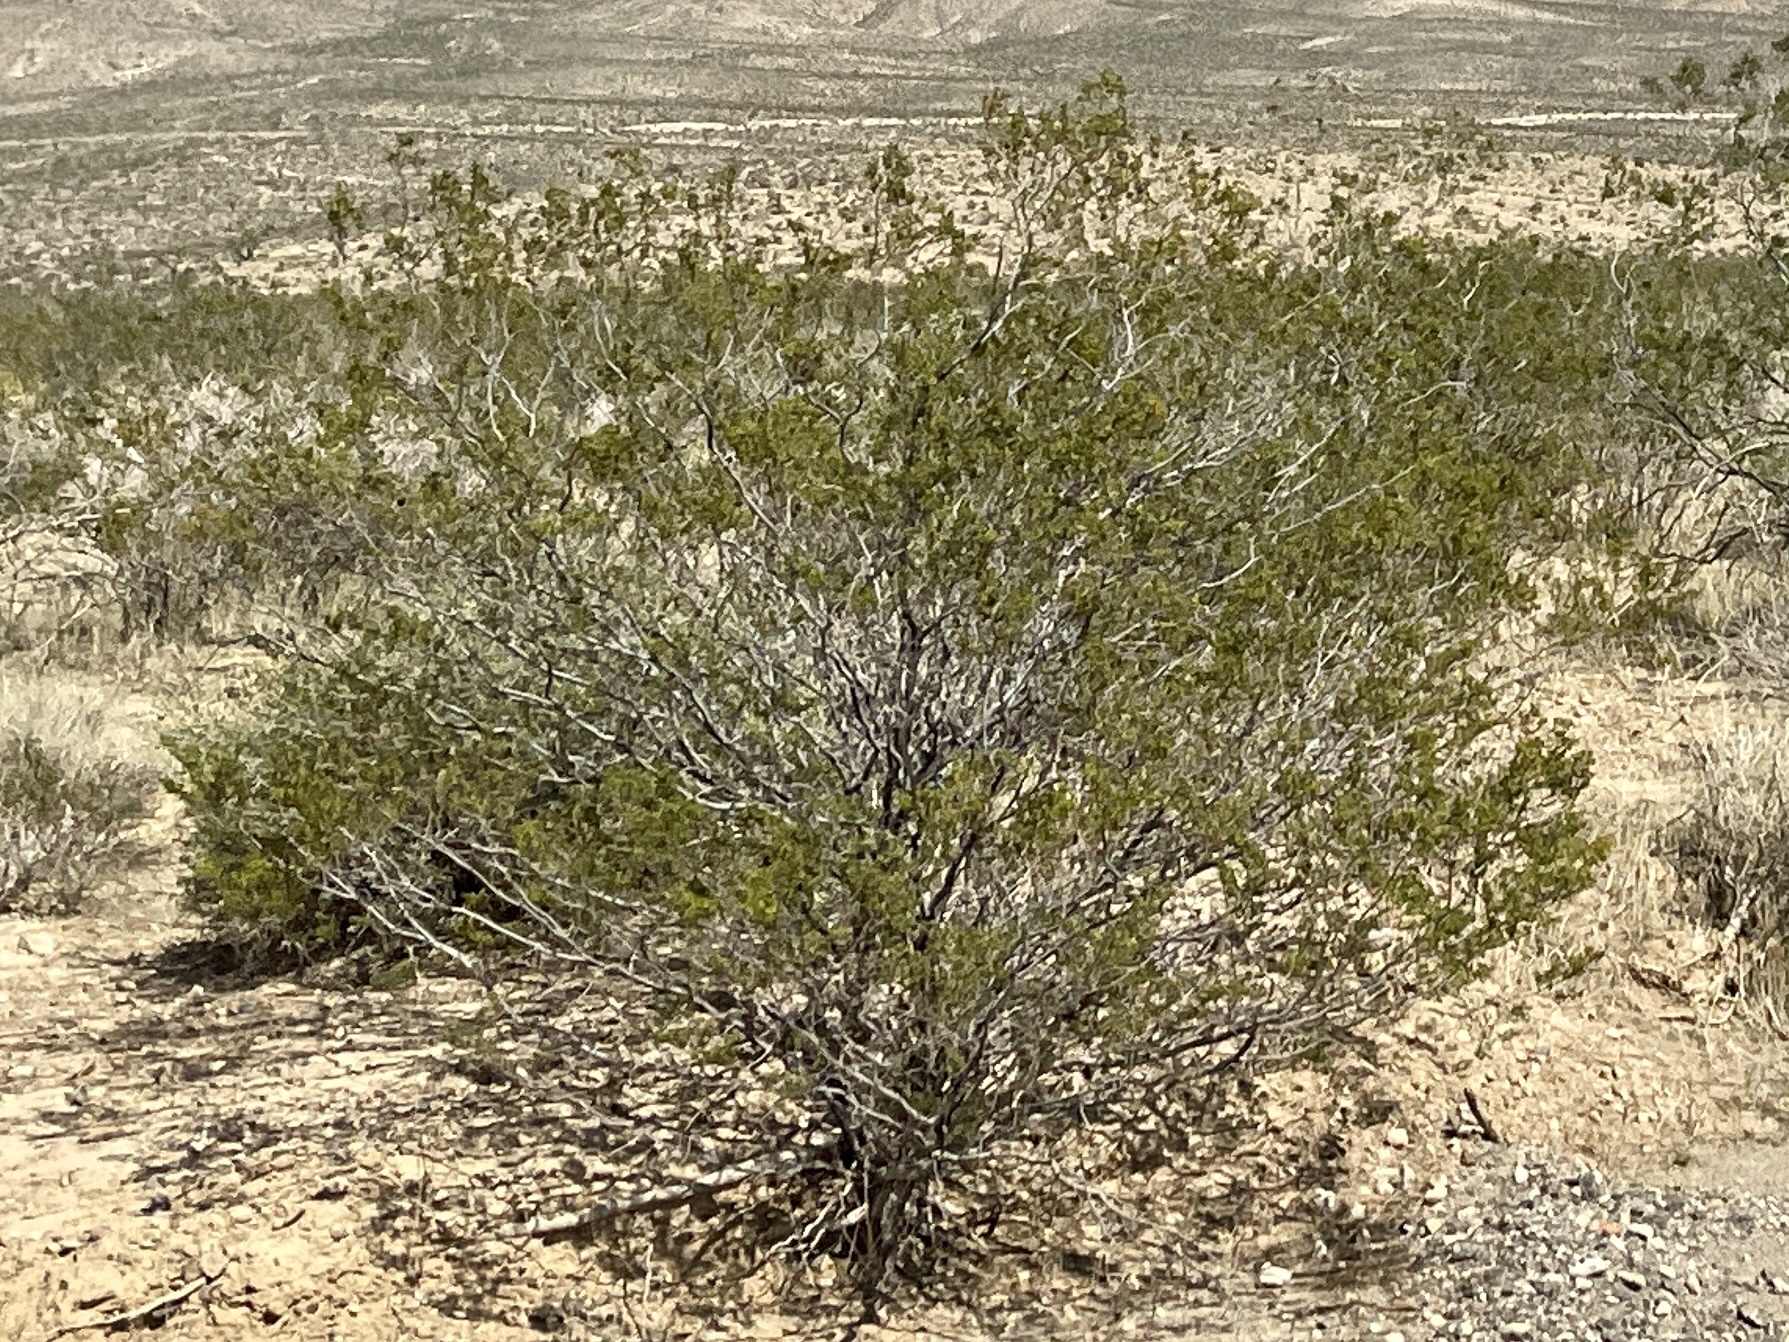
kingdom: Plantae
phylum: Tracheophyta
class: Magnoliopsida
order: Zygophyllales
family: Zygophyllaceae
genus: Larrea
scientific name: Larrea tridentata
